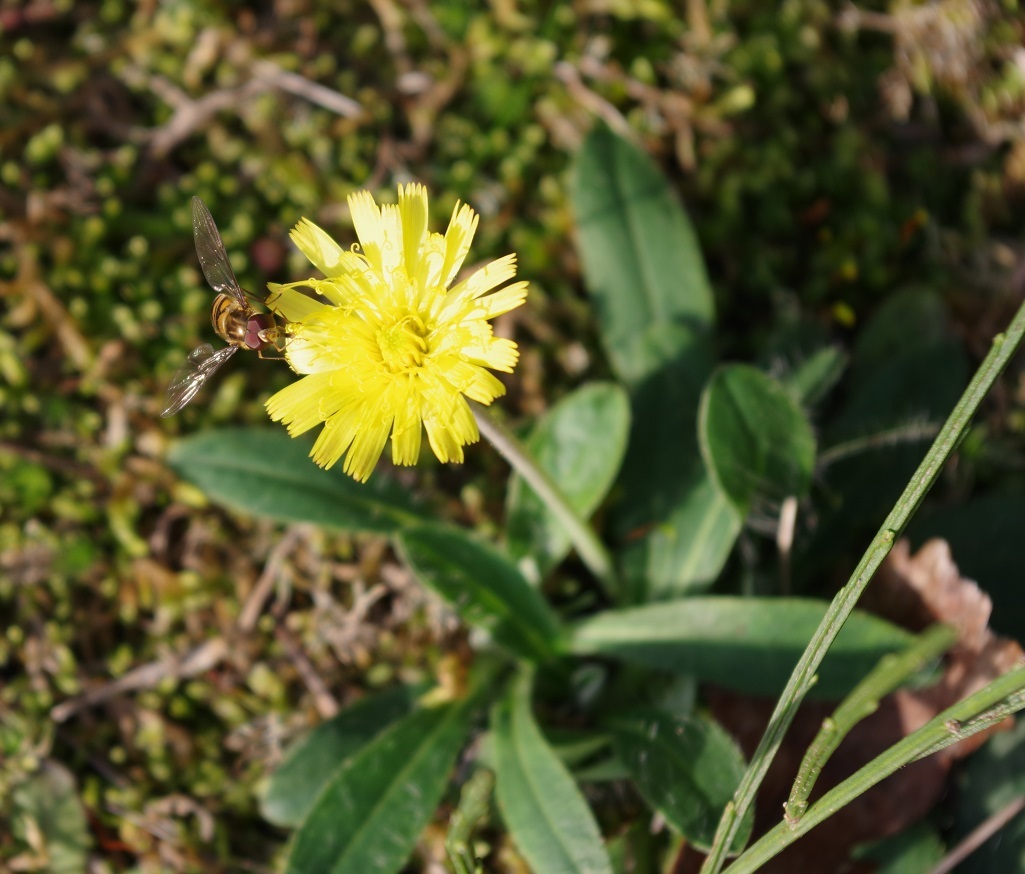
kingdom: Plantae
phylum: Tracheophyta
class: Magnoliopsida
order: Asterales
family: Asteraceae
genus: Pilosella
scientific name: Pilosella officinarum
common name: Mouse-ear hawkweed
